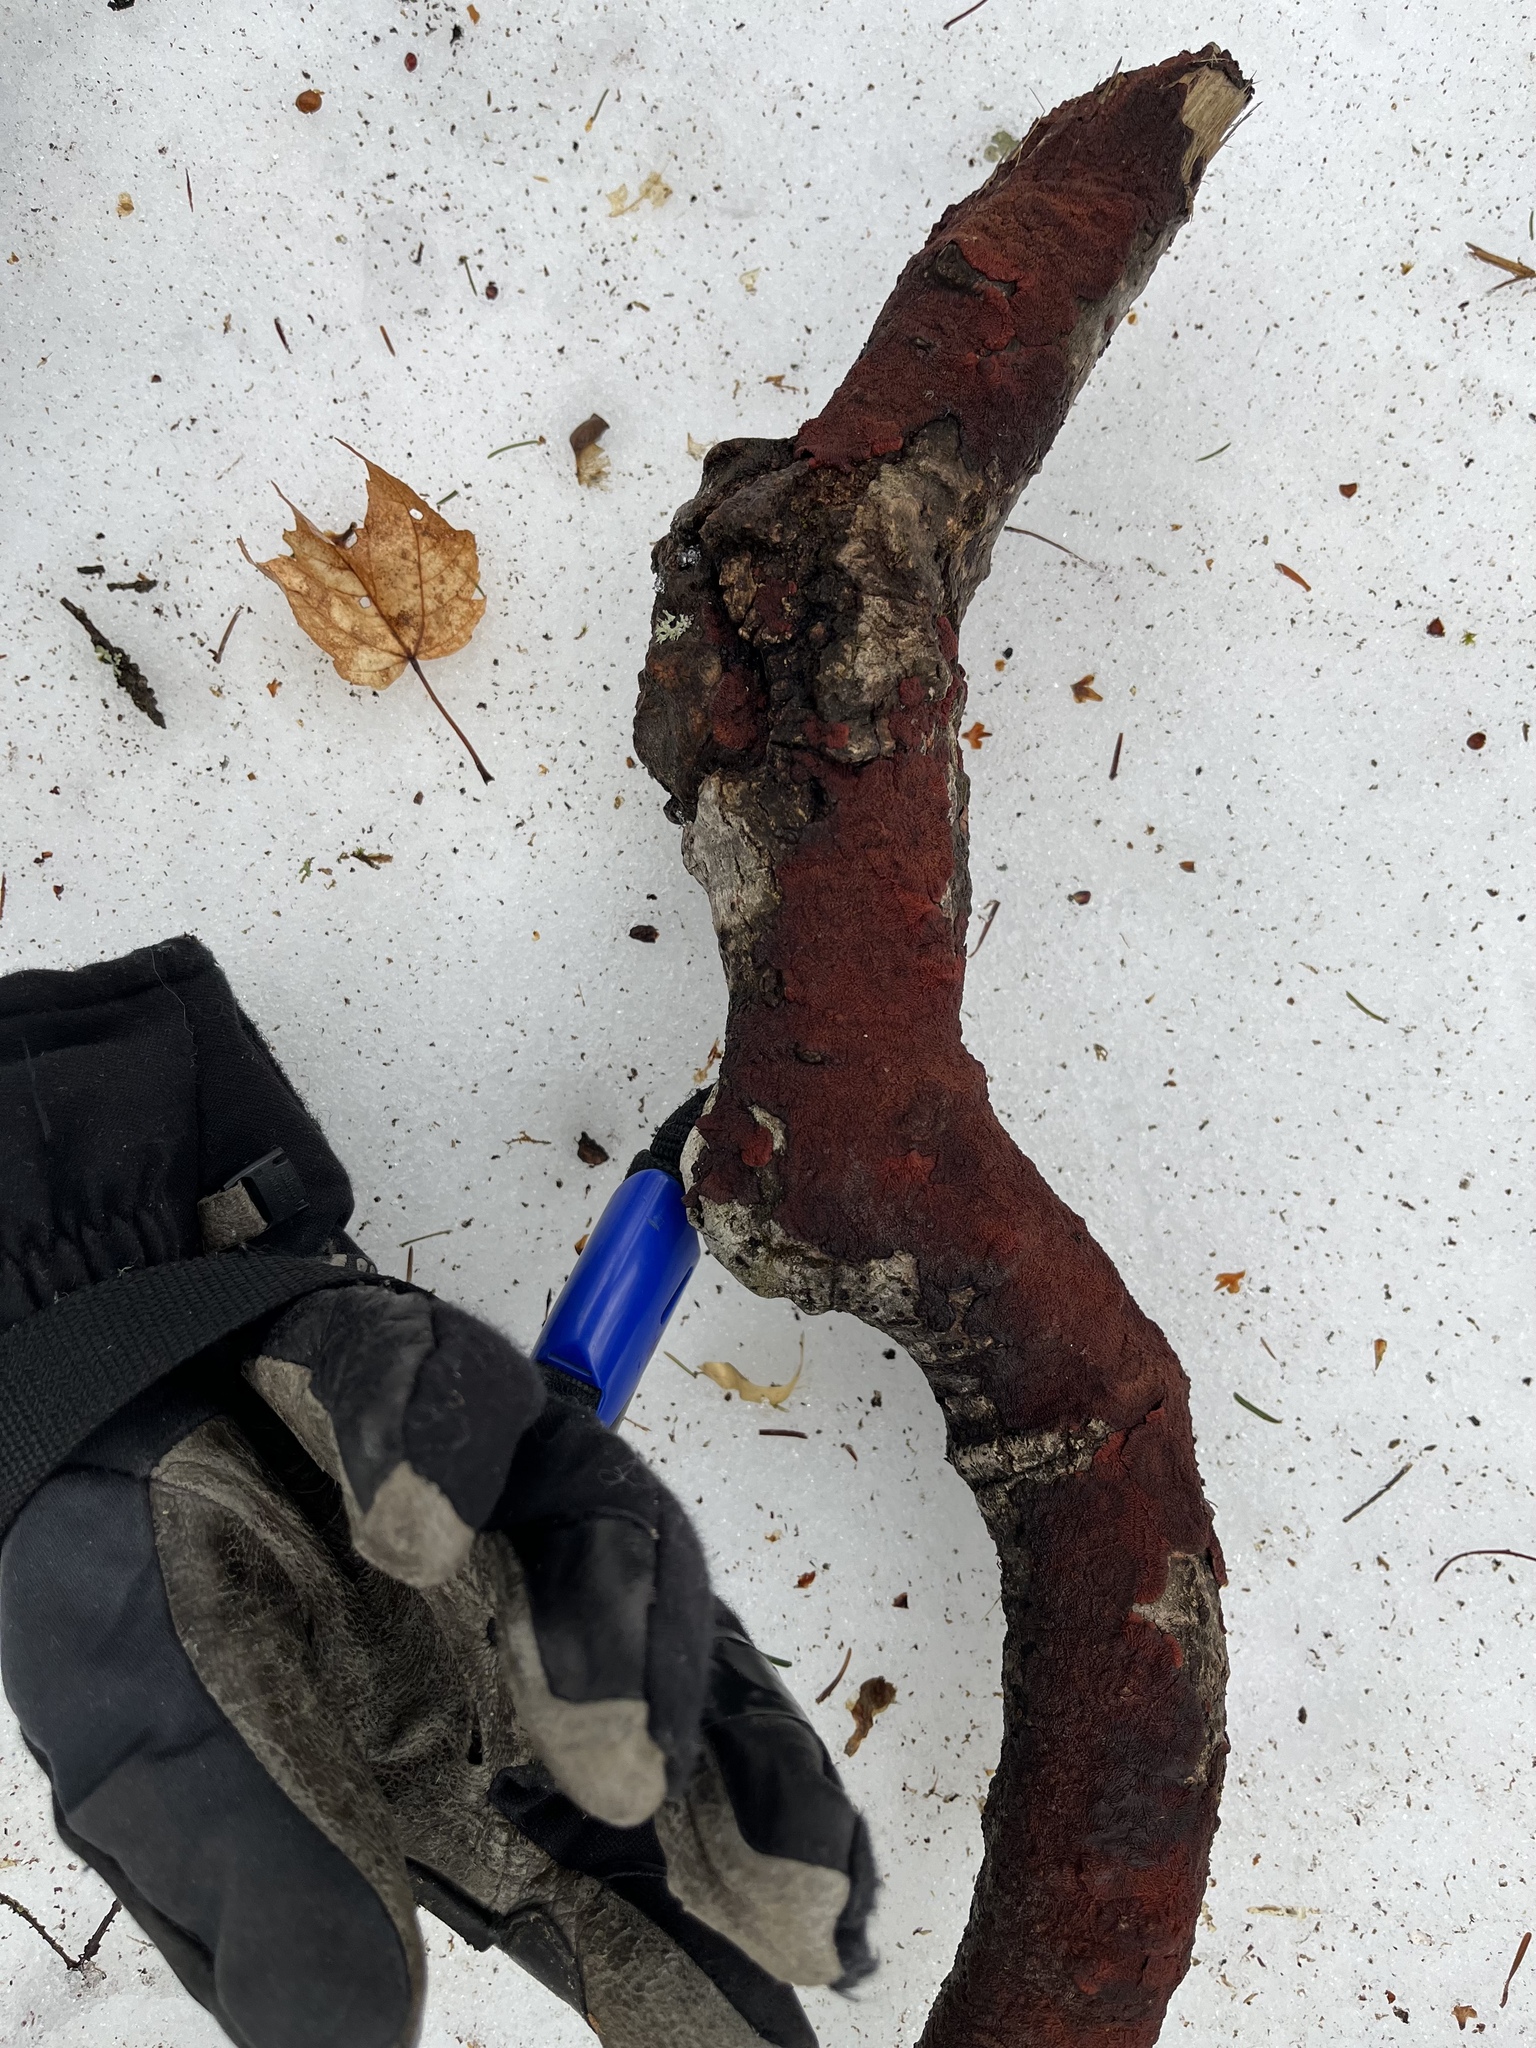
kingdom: Fungi
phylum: Basidiomycota
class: Agaricomycetes
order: Corticiales
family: Punctulariaceae
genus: Punctularia
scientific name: Punctularia strigosozonata
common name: White-rot fungus
